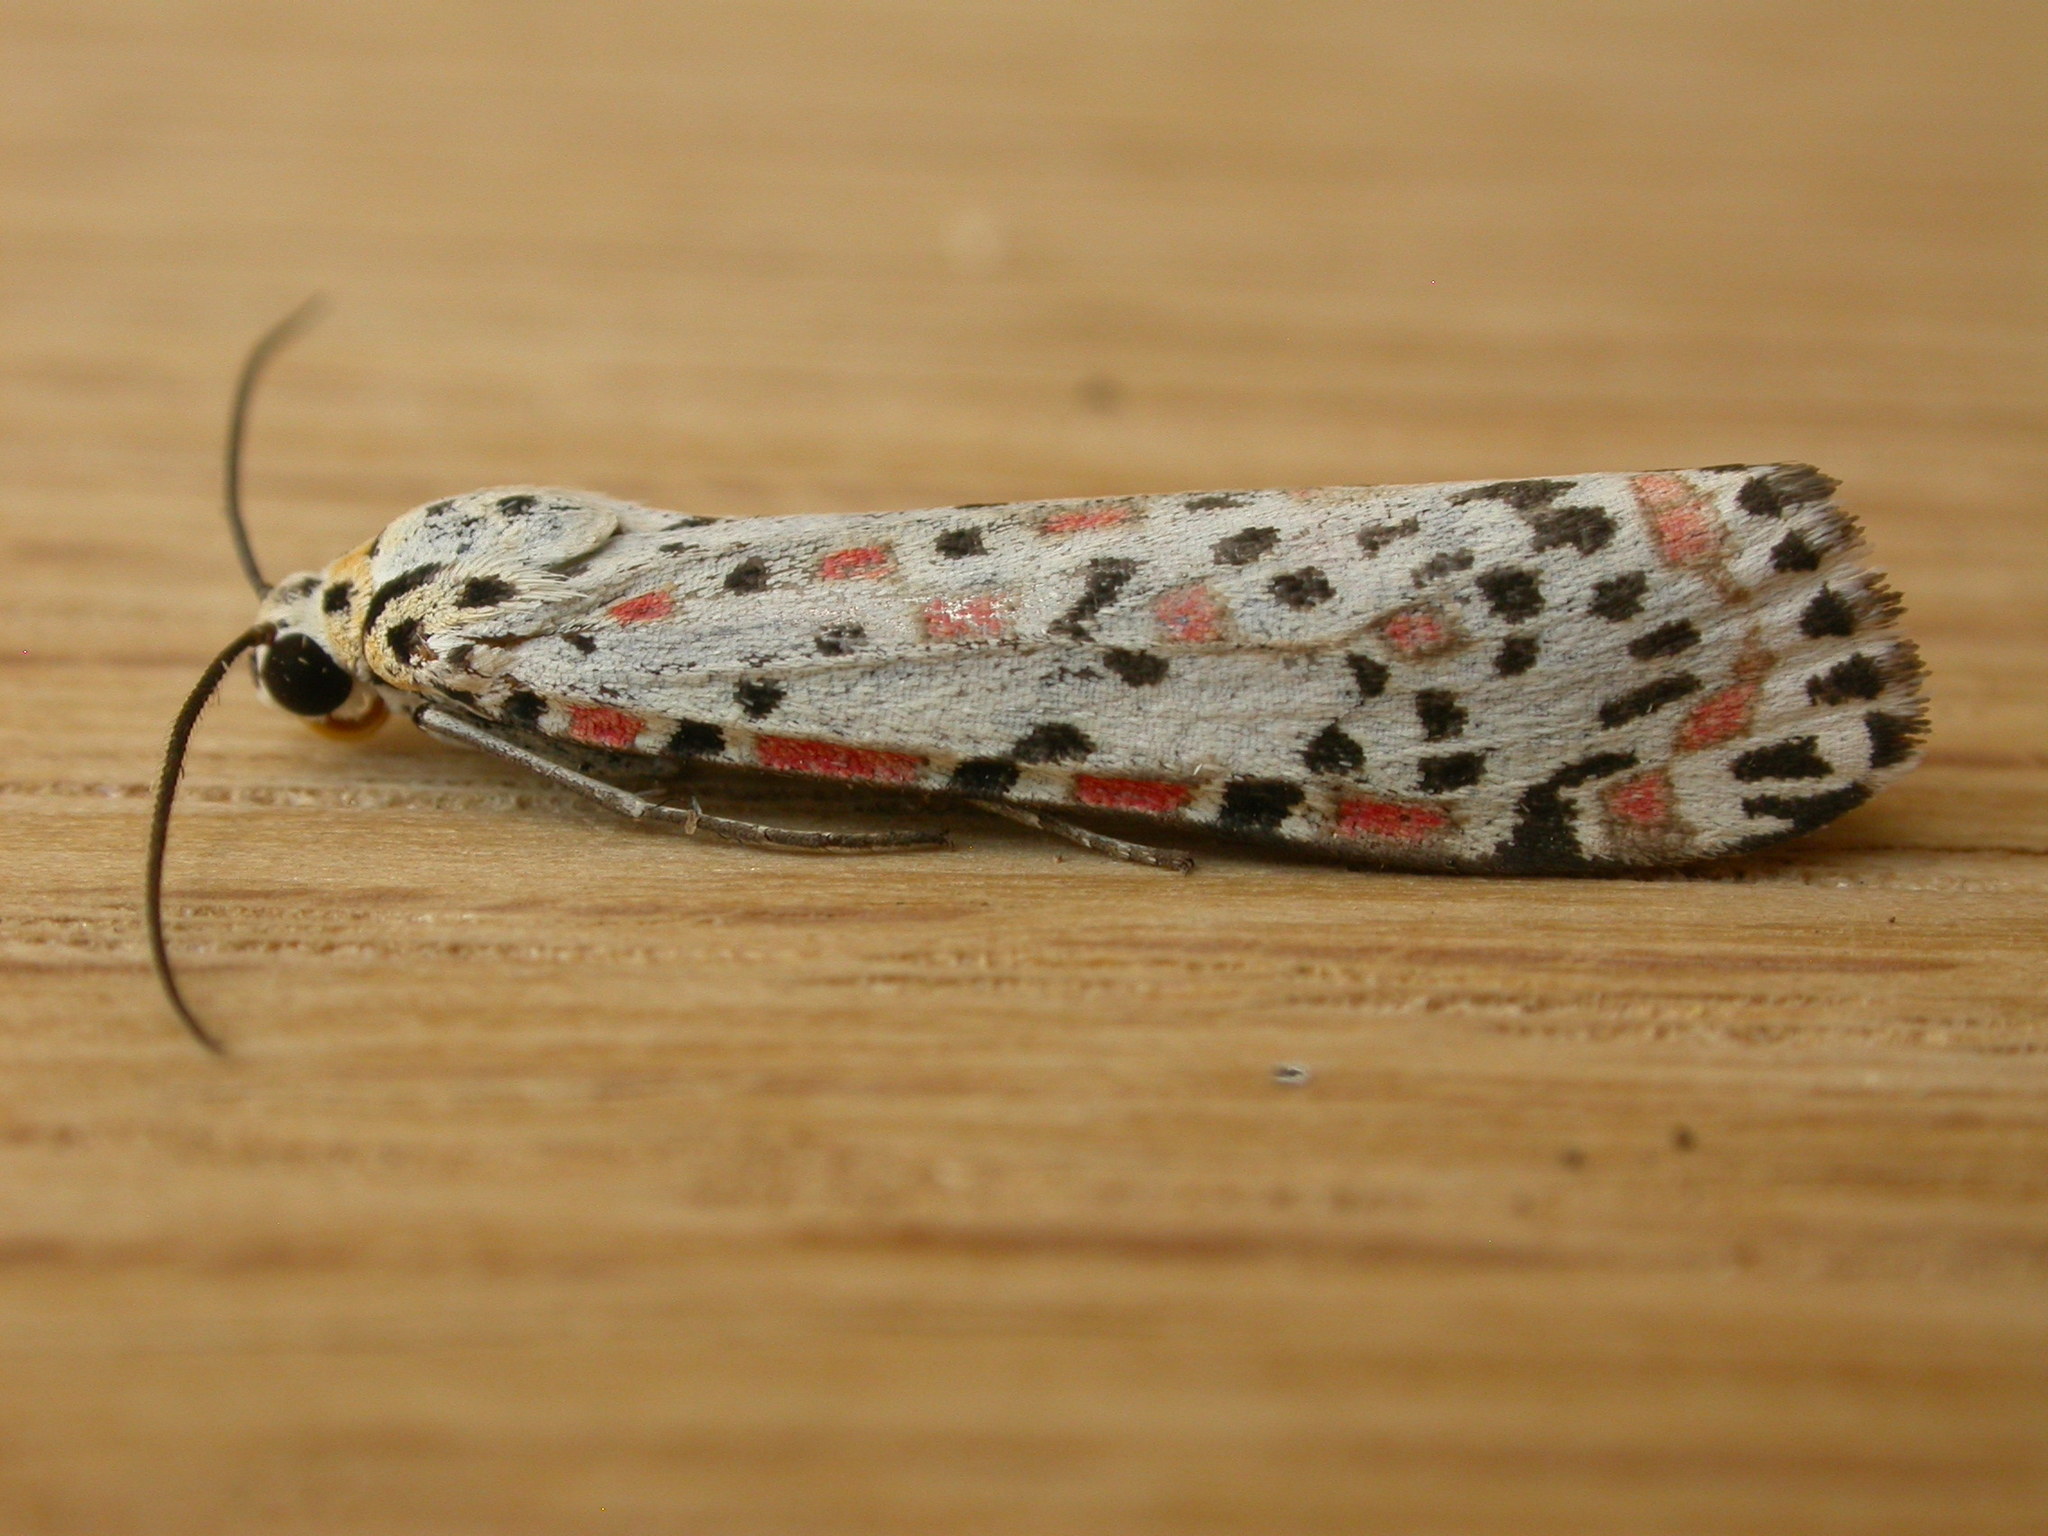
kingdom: Animalia
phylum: Arthropoda
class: Insecta
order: Lepidoptera
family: Erebidae
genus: Utetheisa
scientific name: Utetheisa pulchelloides
